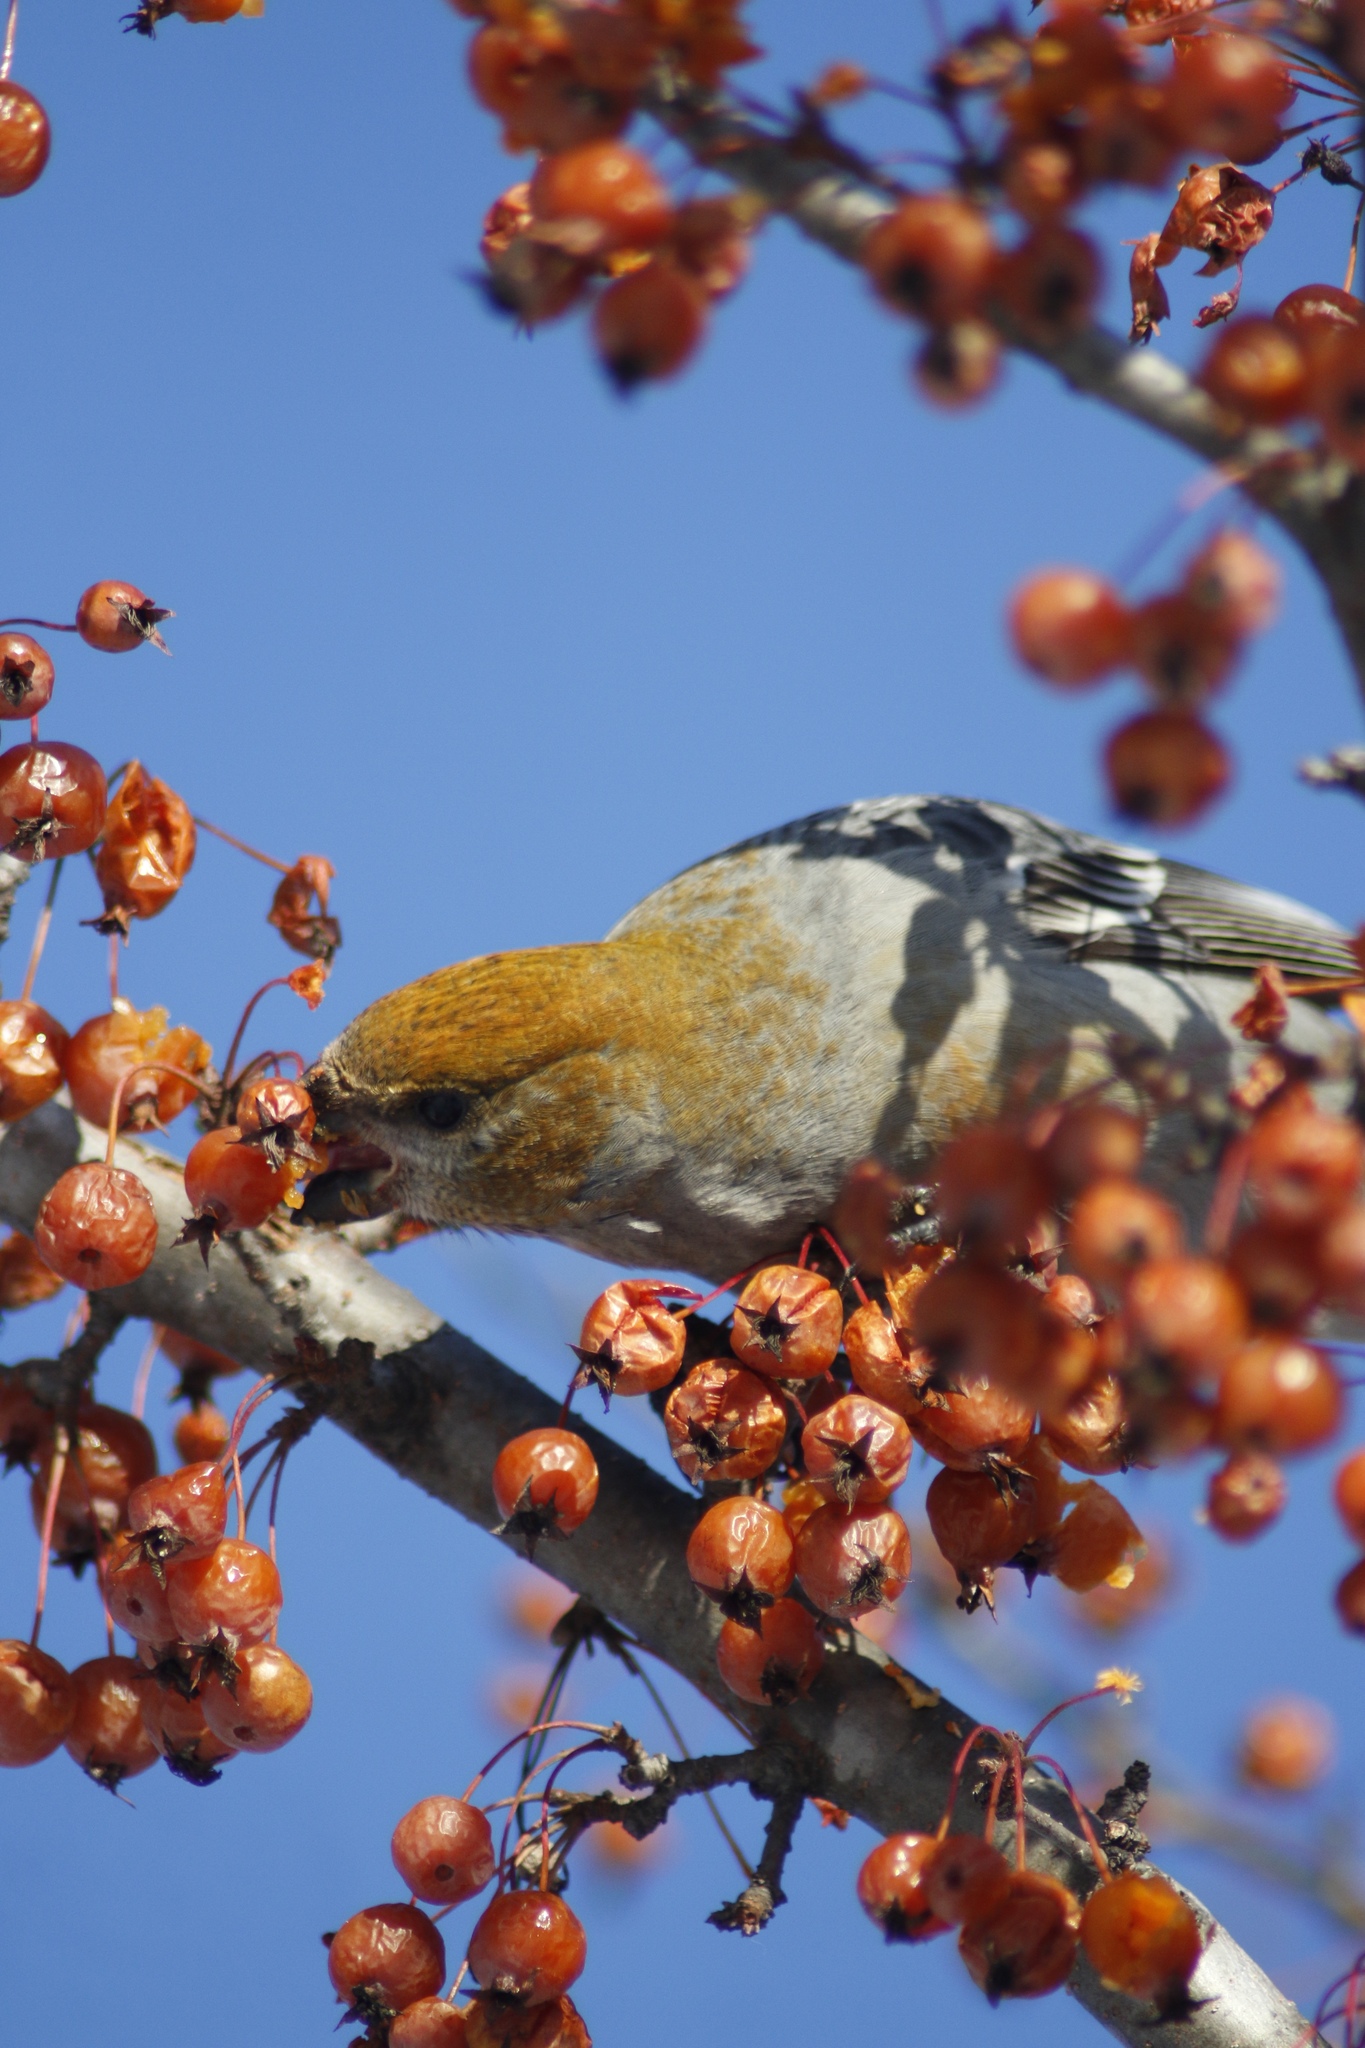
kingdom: Animalia
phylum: Chordata
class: Aves
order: Passeriformes
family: Fringillidae
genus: Pinicola
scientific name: Pinicola enucleator
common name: Pine grosbeak
